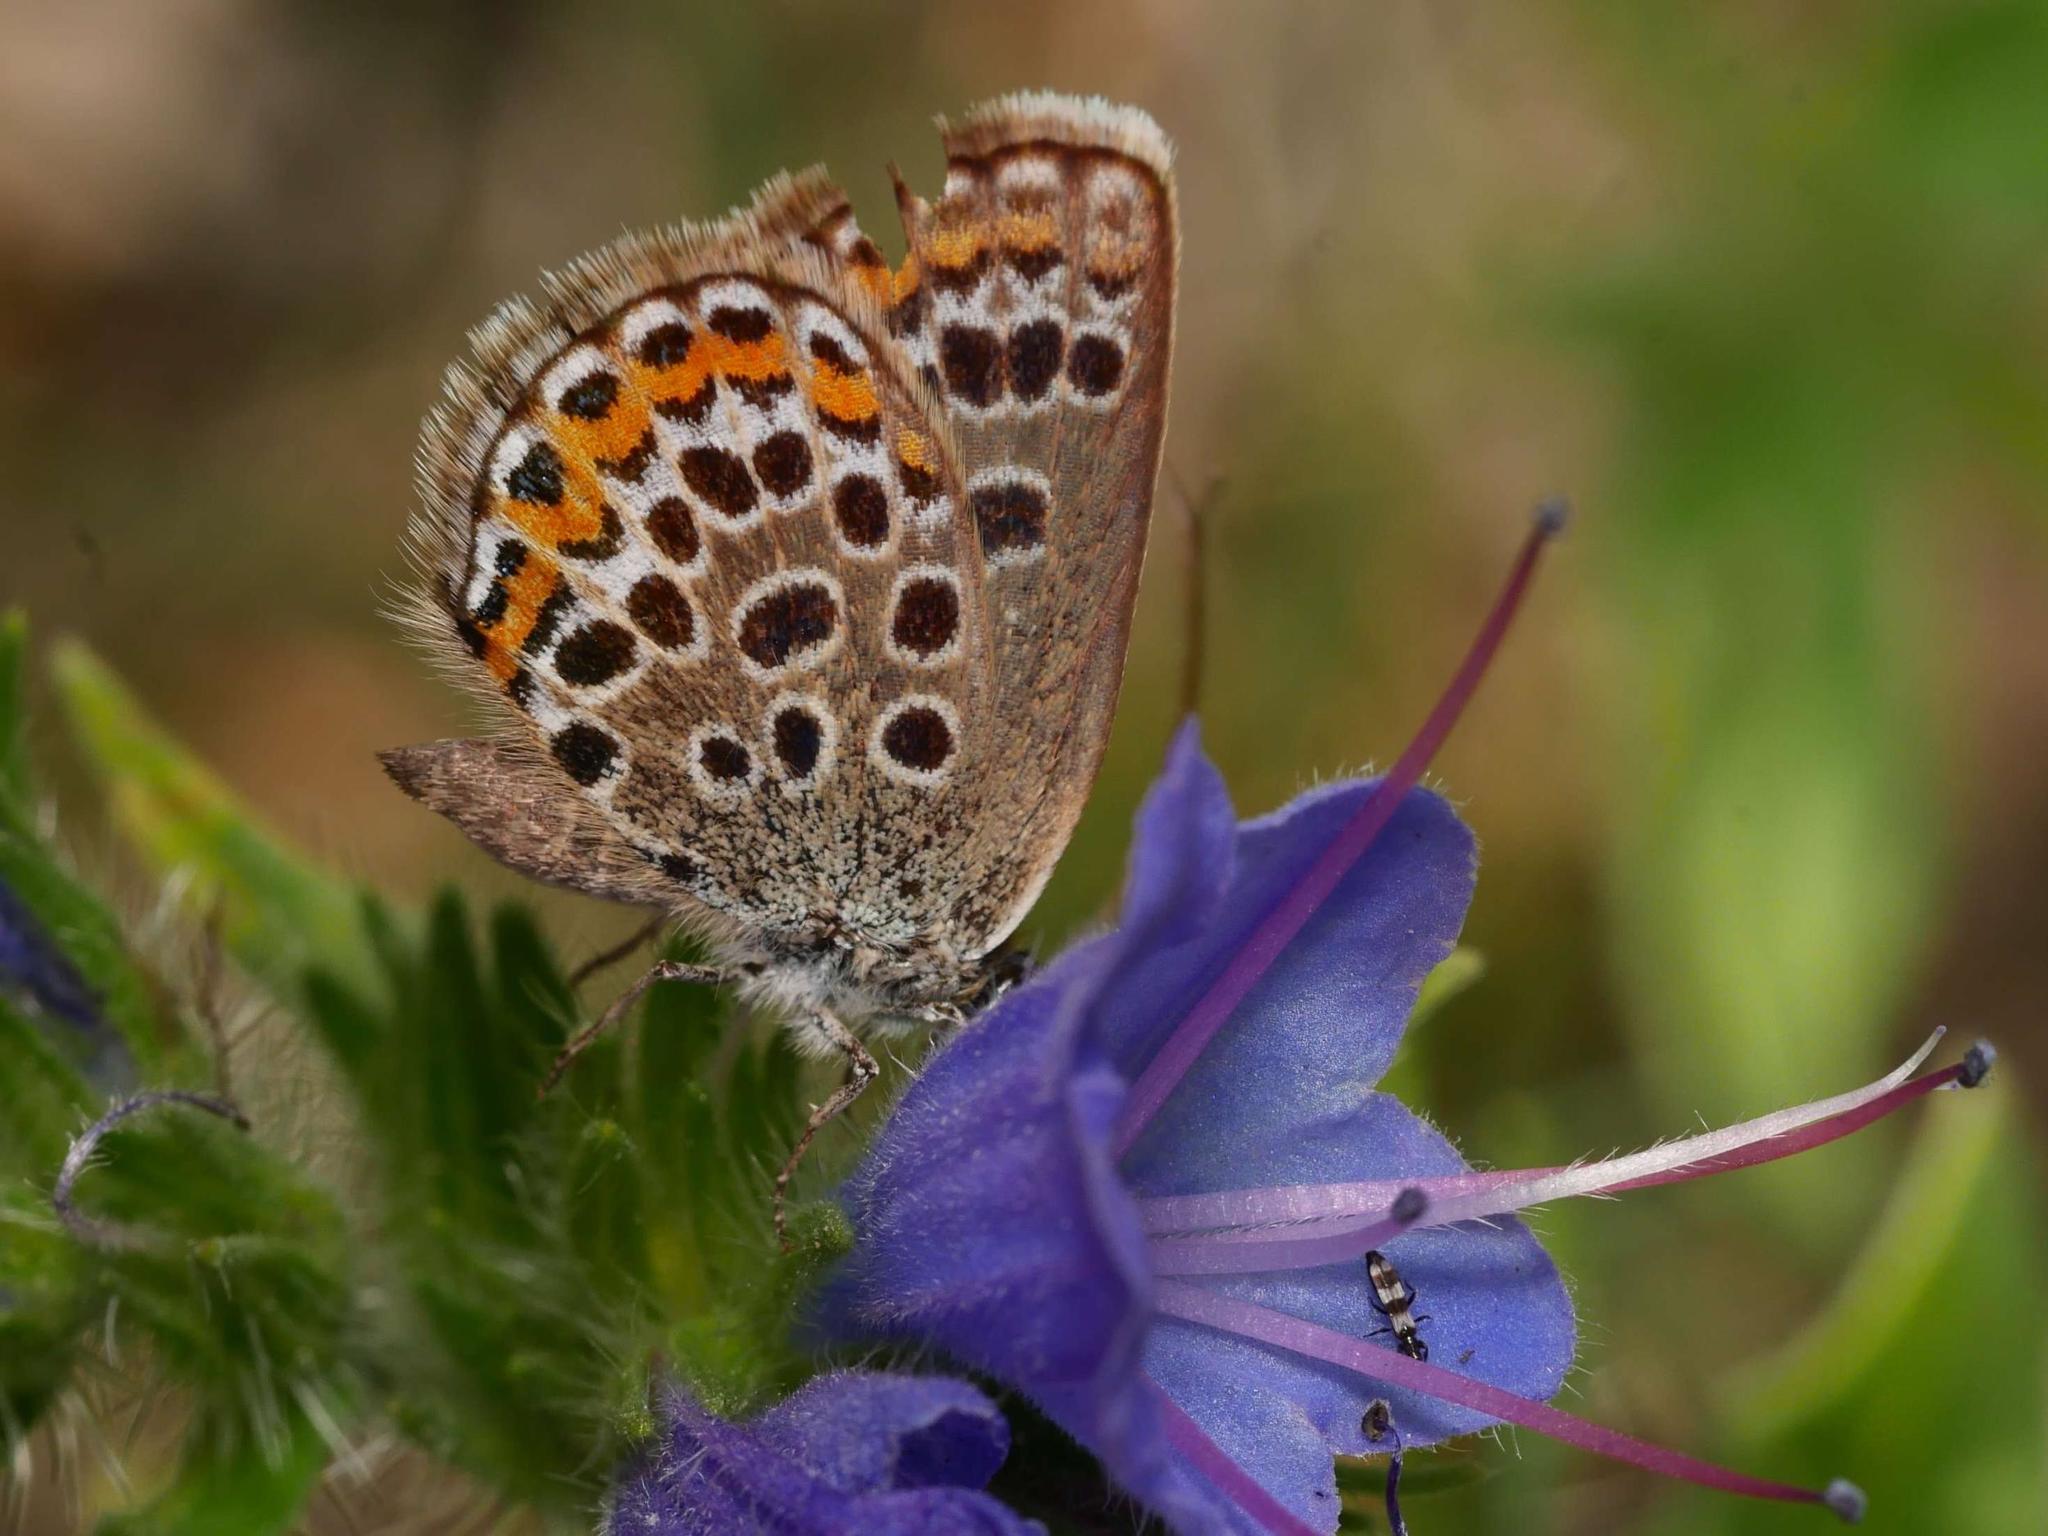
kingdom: Animalia
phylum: Arthropoda
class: Insecta
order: Lepidoptera
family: Lycaenidae
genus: Plebejus
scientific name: Plebejus argus
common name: Silver-studded blue
